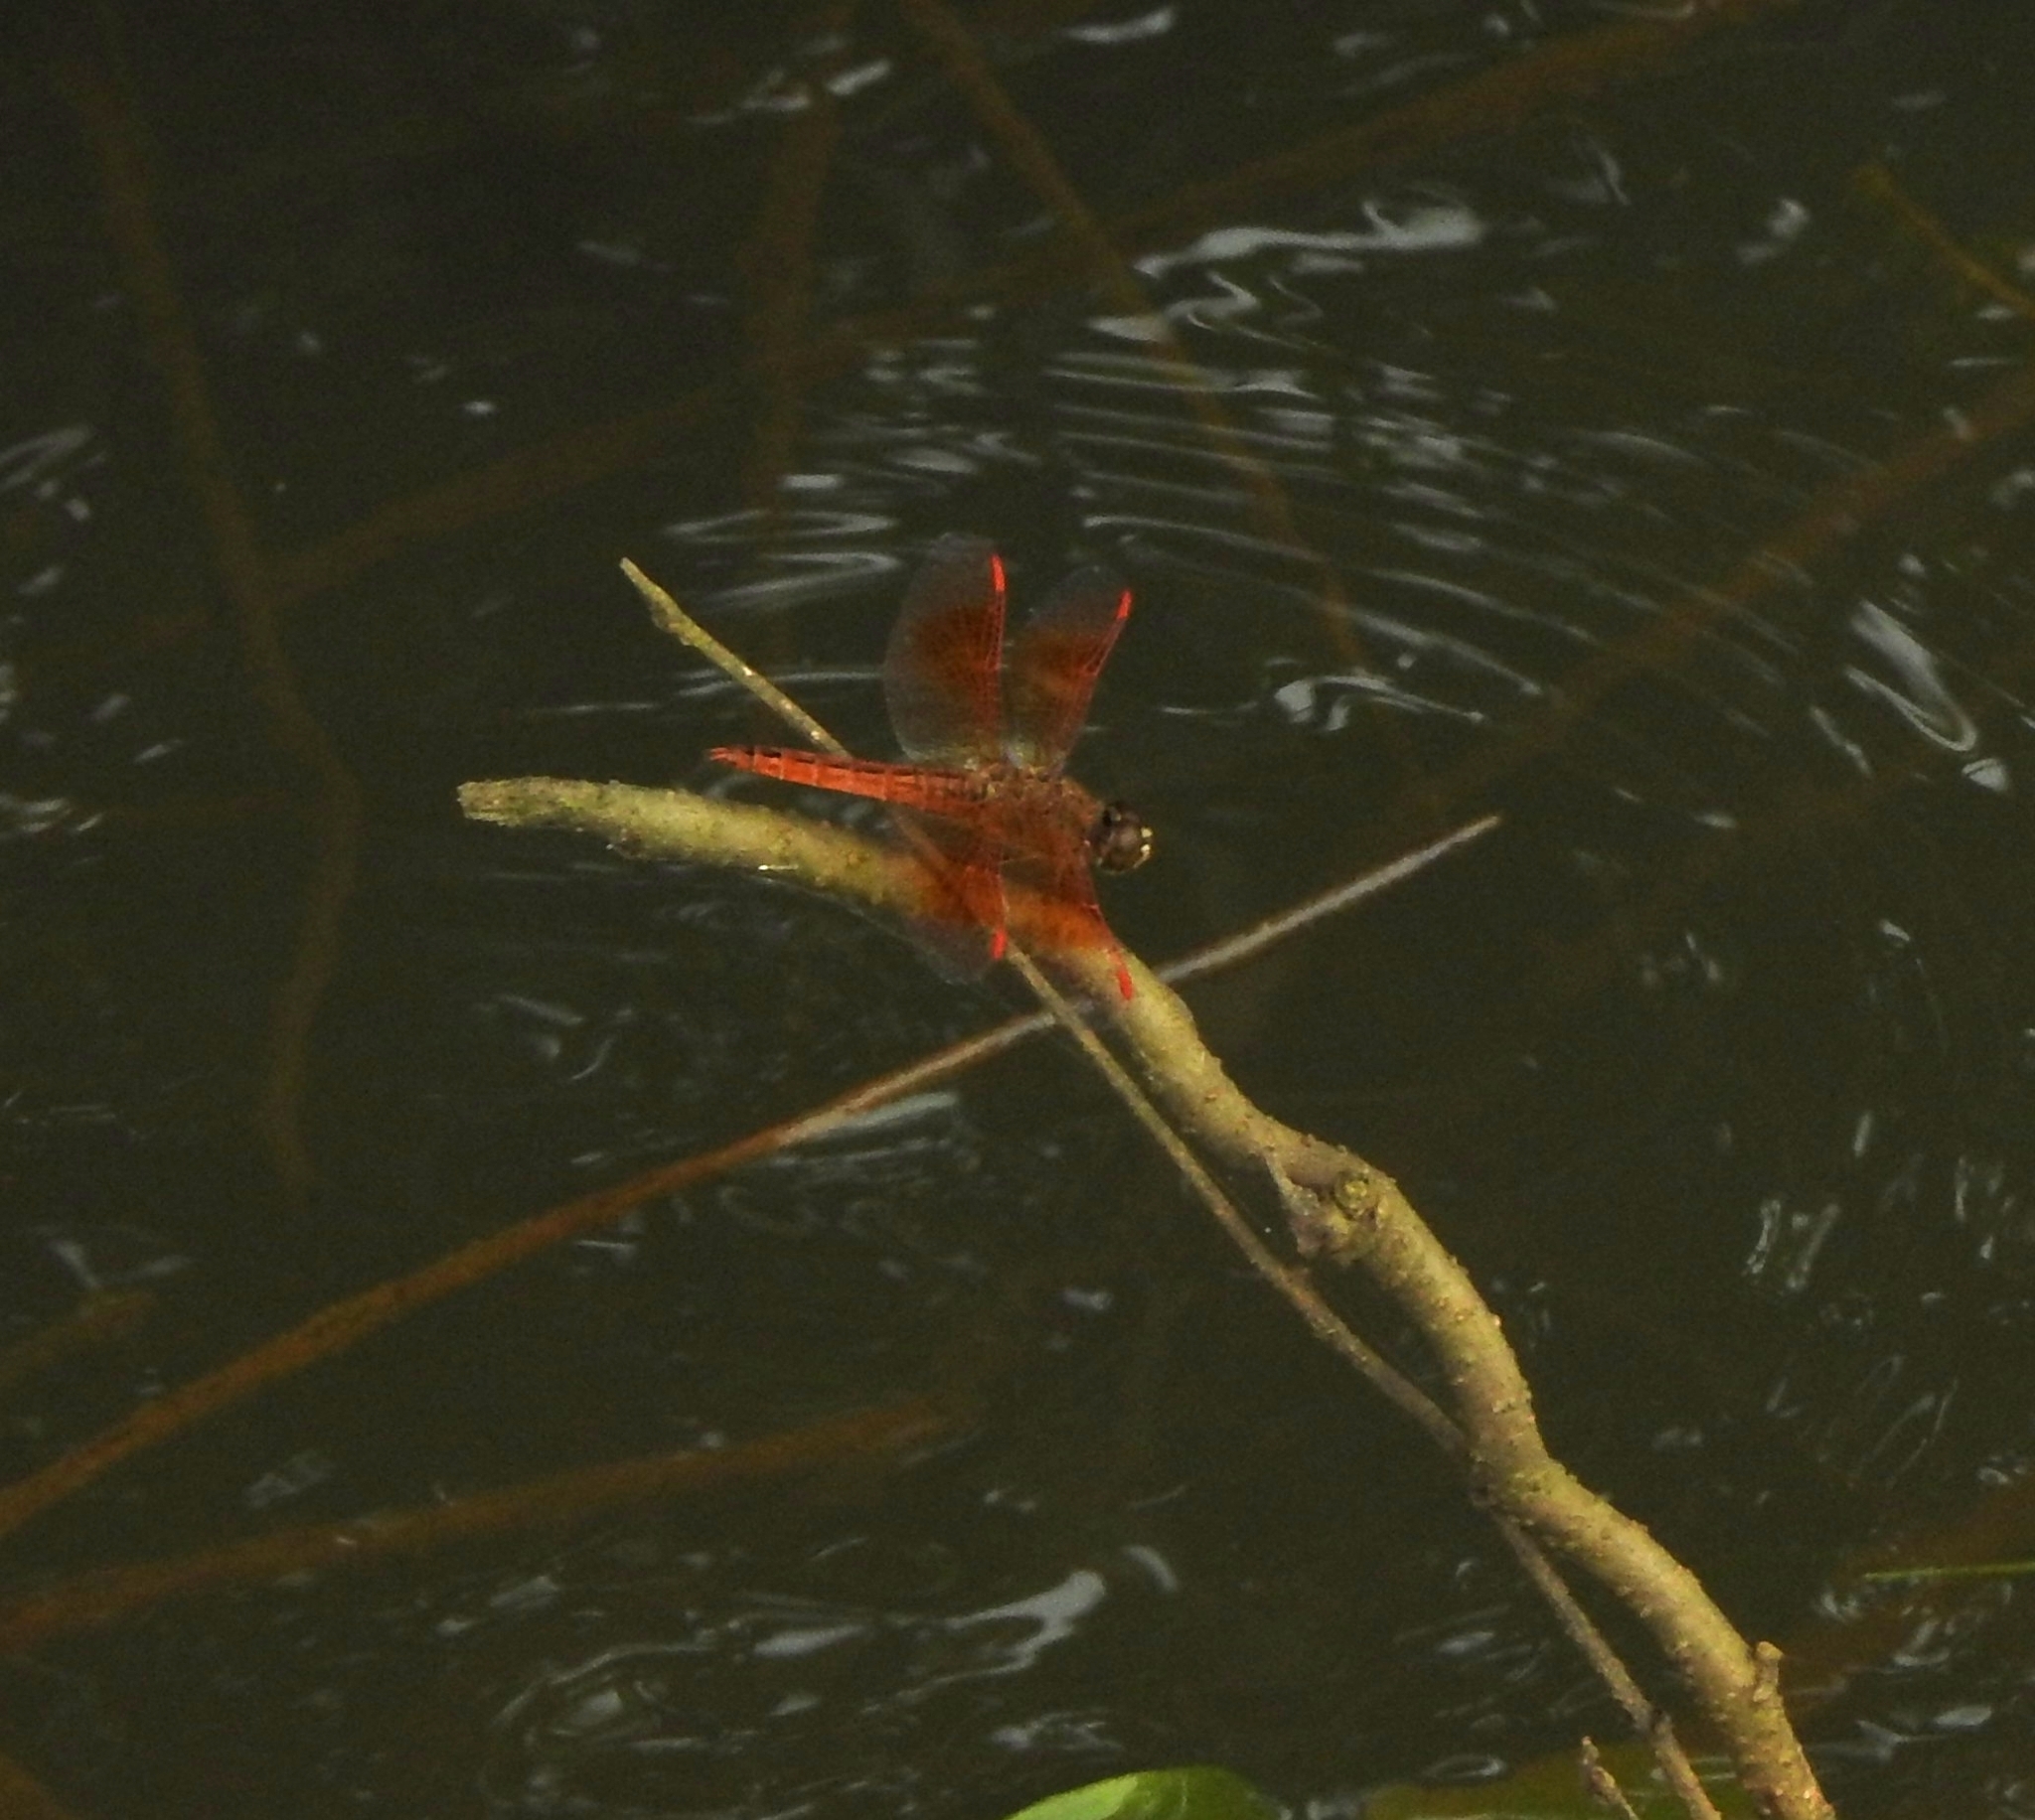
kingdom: Animalia
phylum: Arthropoda
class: Insecta
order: Odonata
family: Libellulidae
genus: Brachythemis
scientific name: Brachythemis contaminata
